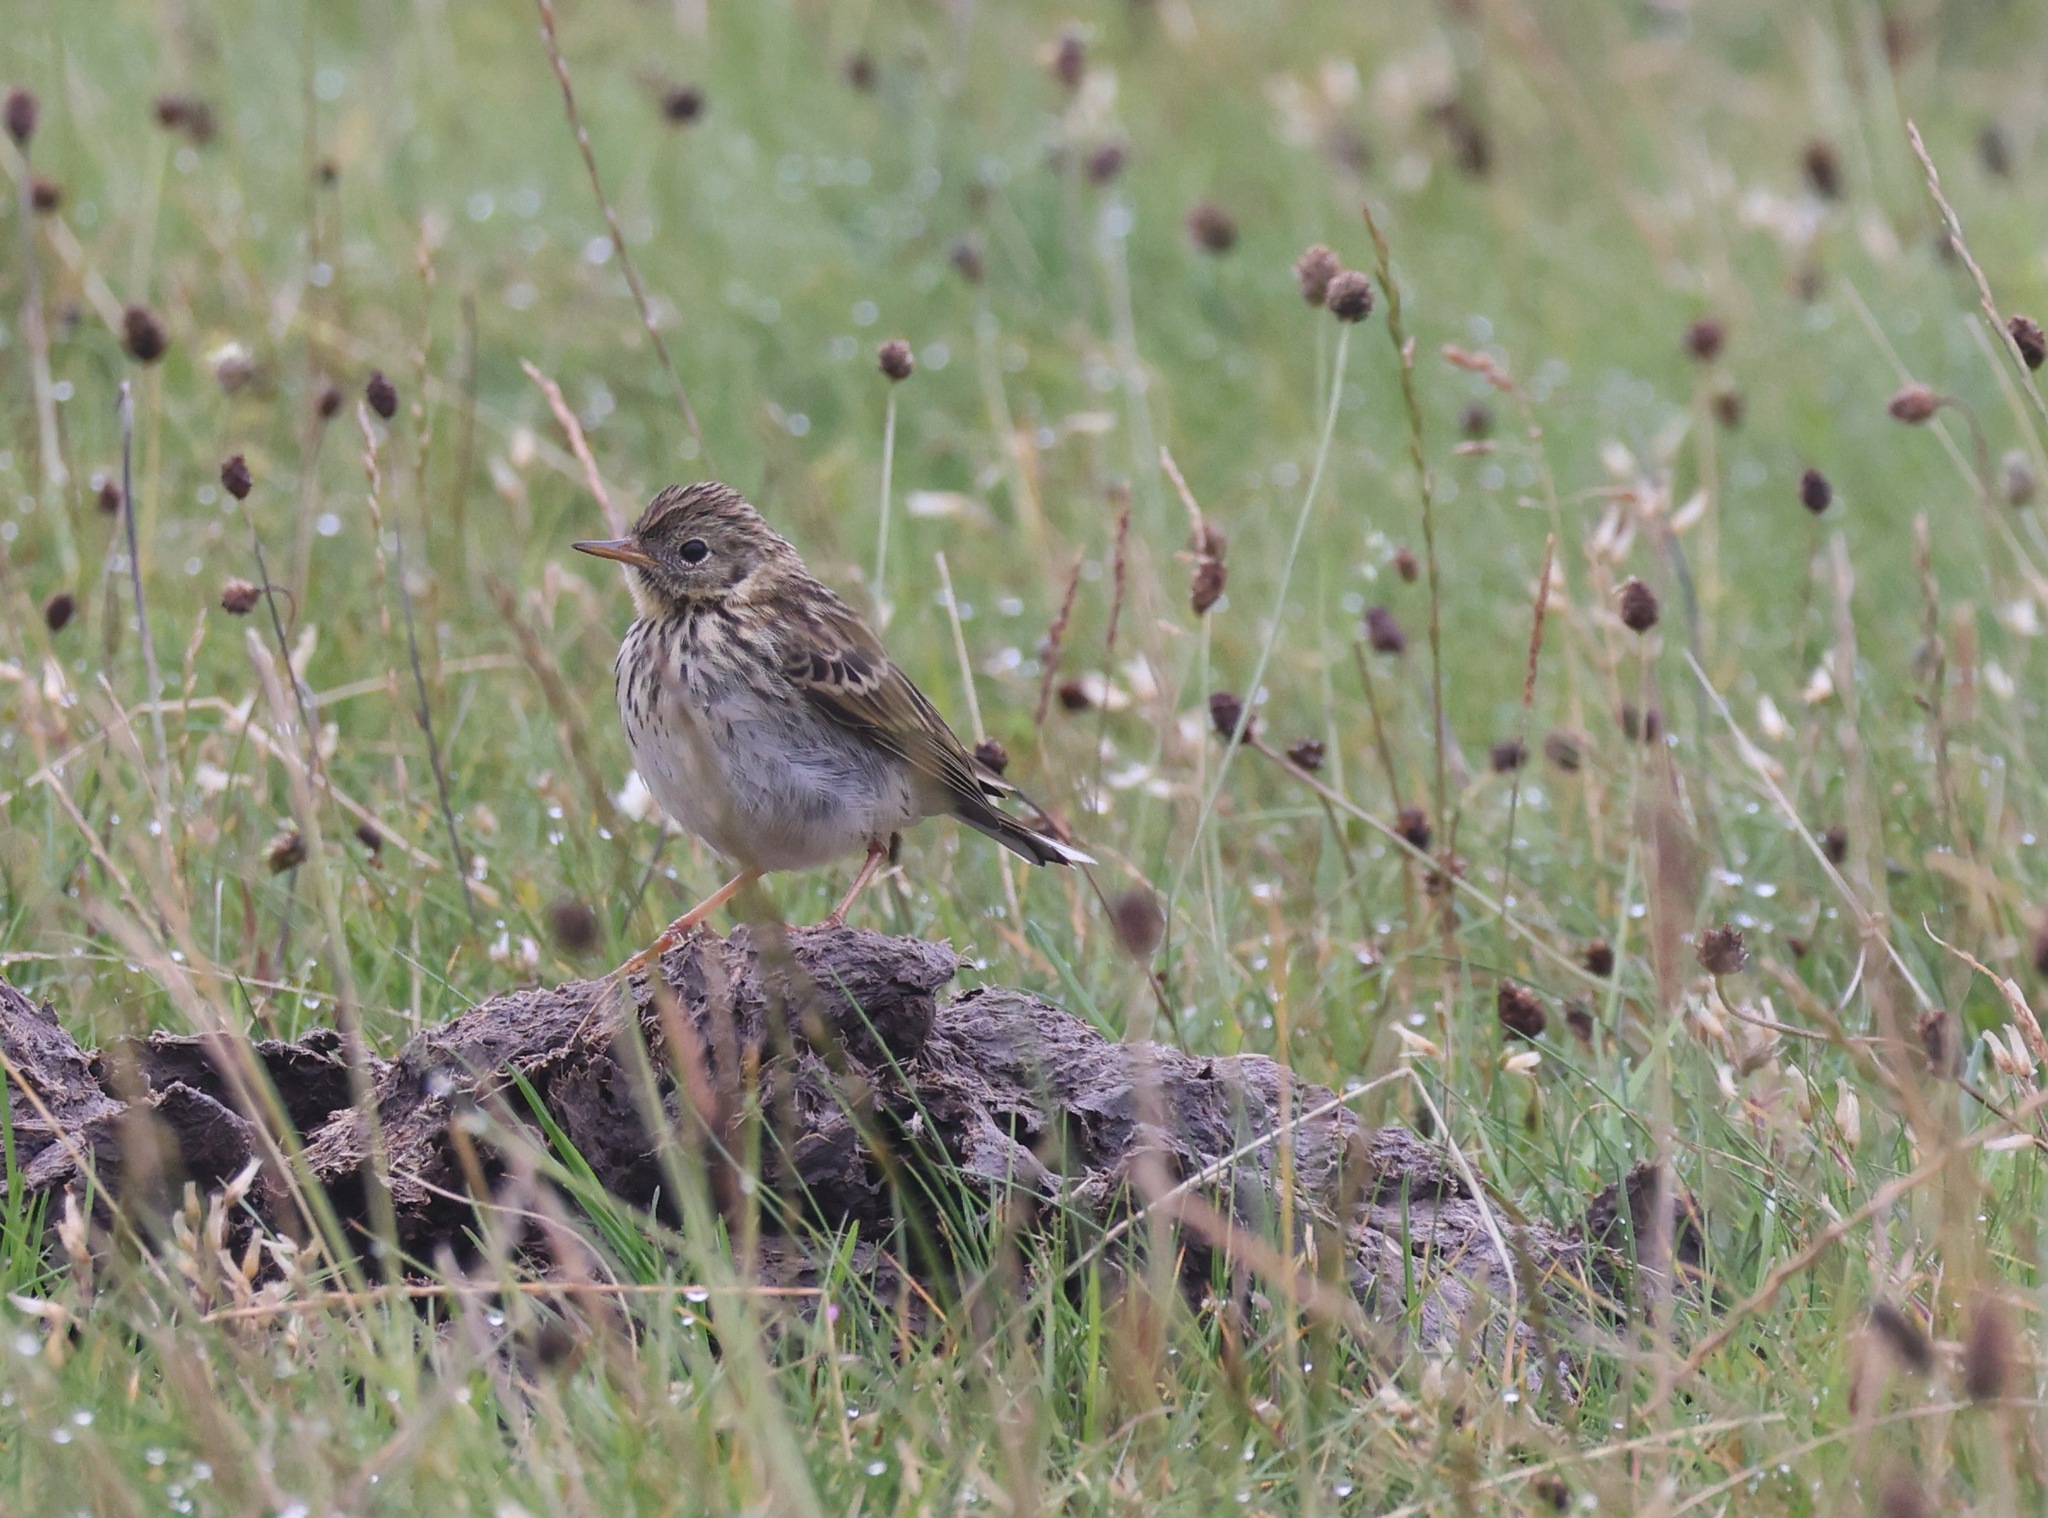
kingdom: Animalia
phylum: Chordata
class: Aves
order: Passeriformes
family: Motacillidae
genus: Anthus
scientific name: Anthus pratensis
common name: Meadow pipit
